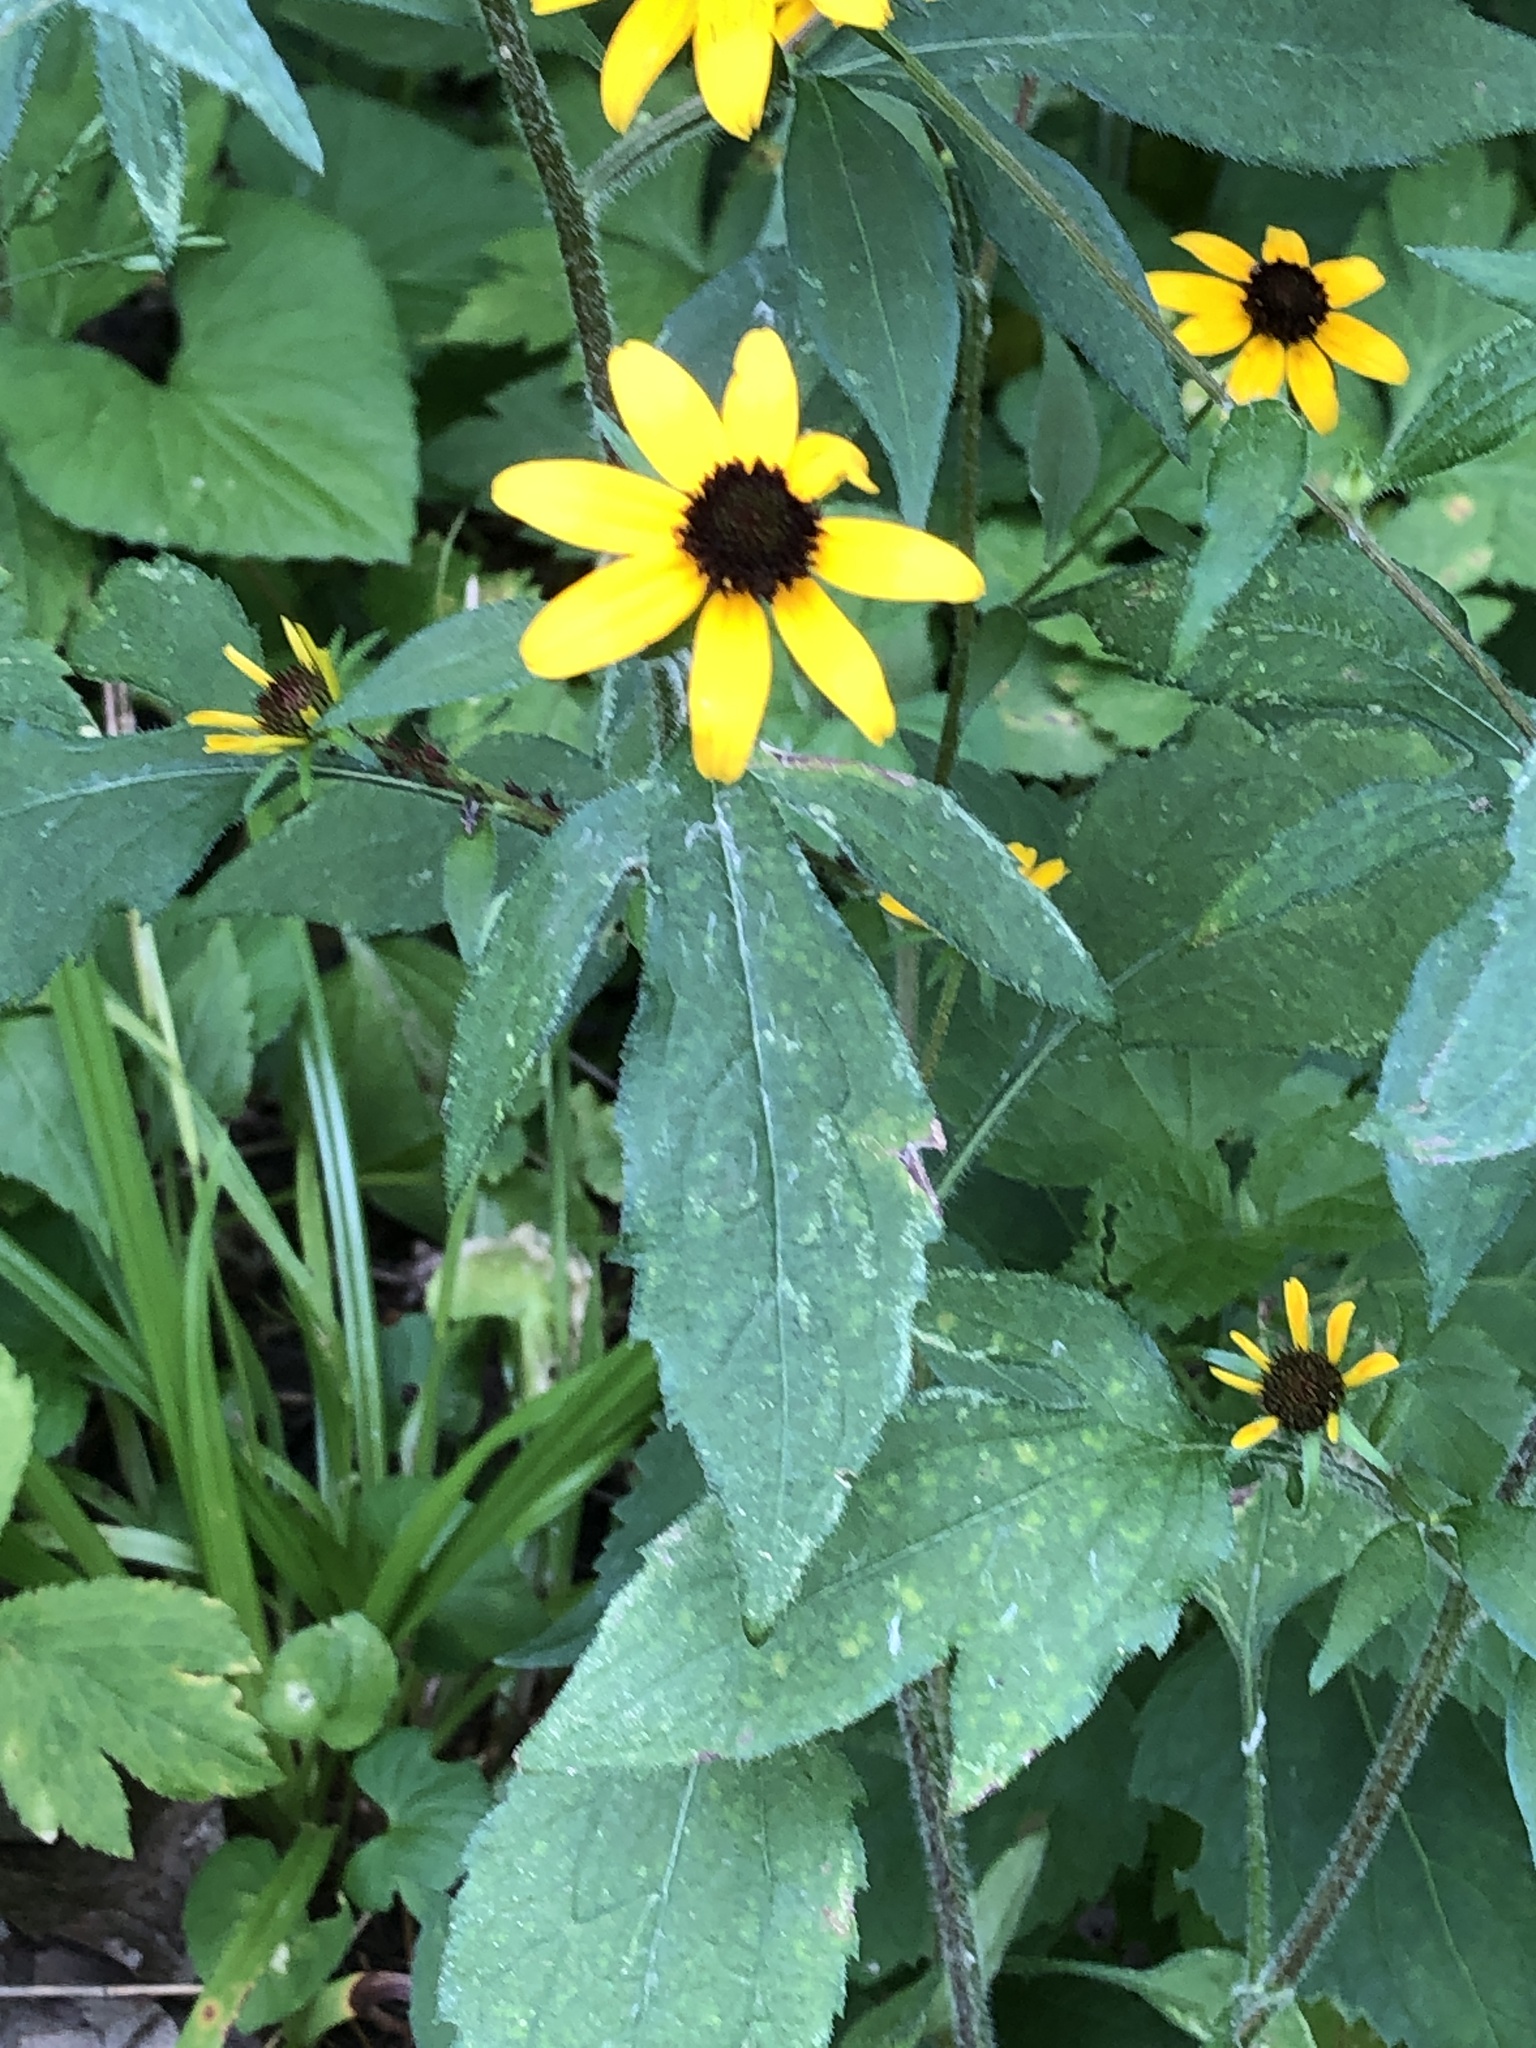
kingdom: Plantae
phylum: Tracheophyta
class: Magnoliopsida
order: Asterales
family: Asteraceae
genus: Rudbeckia
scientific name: Rudbeckia triloba
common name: Thin-leaved coneflower
